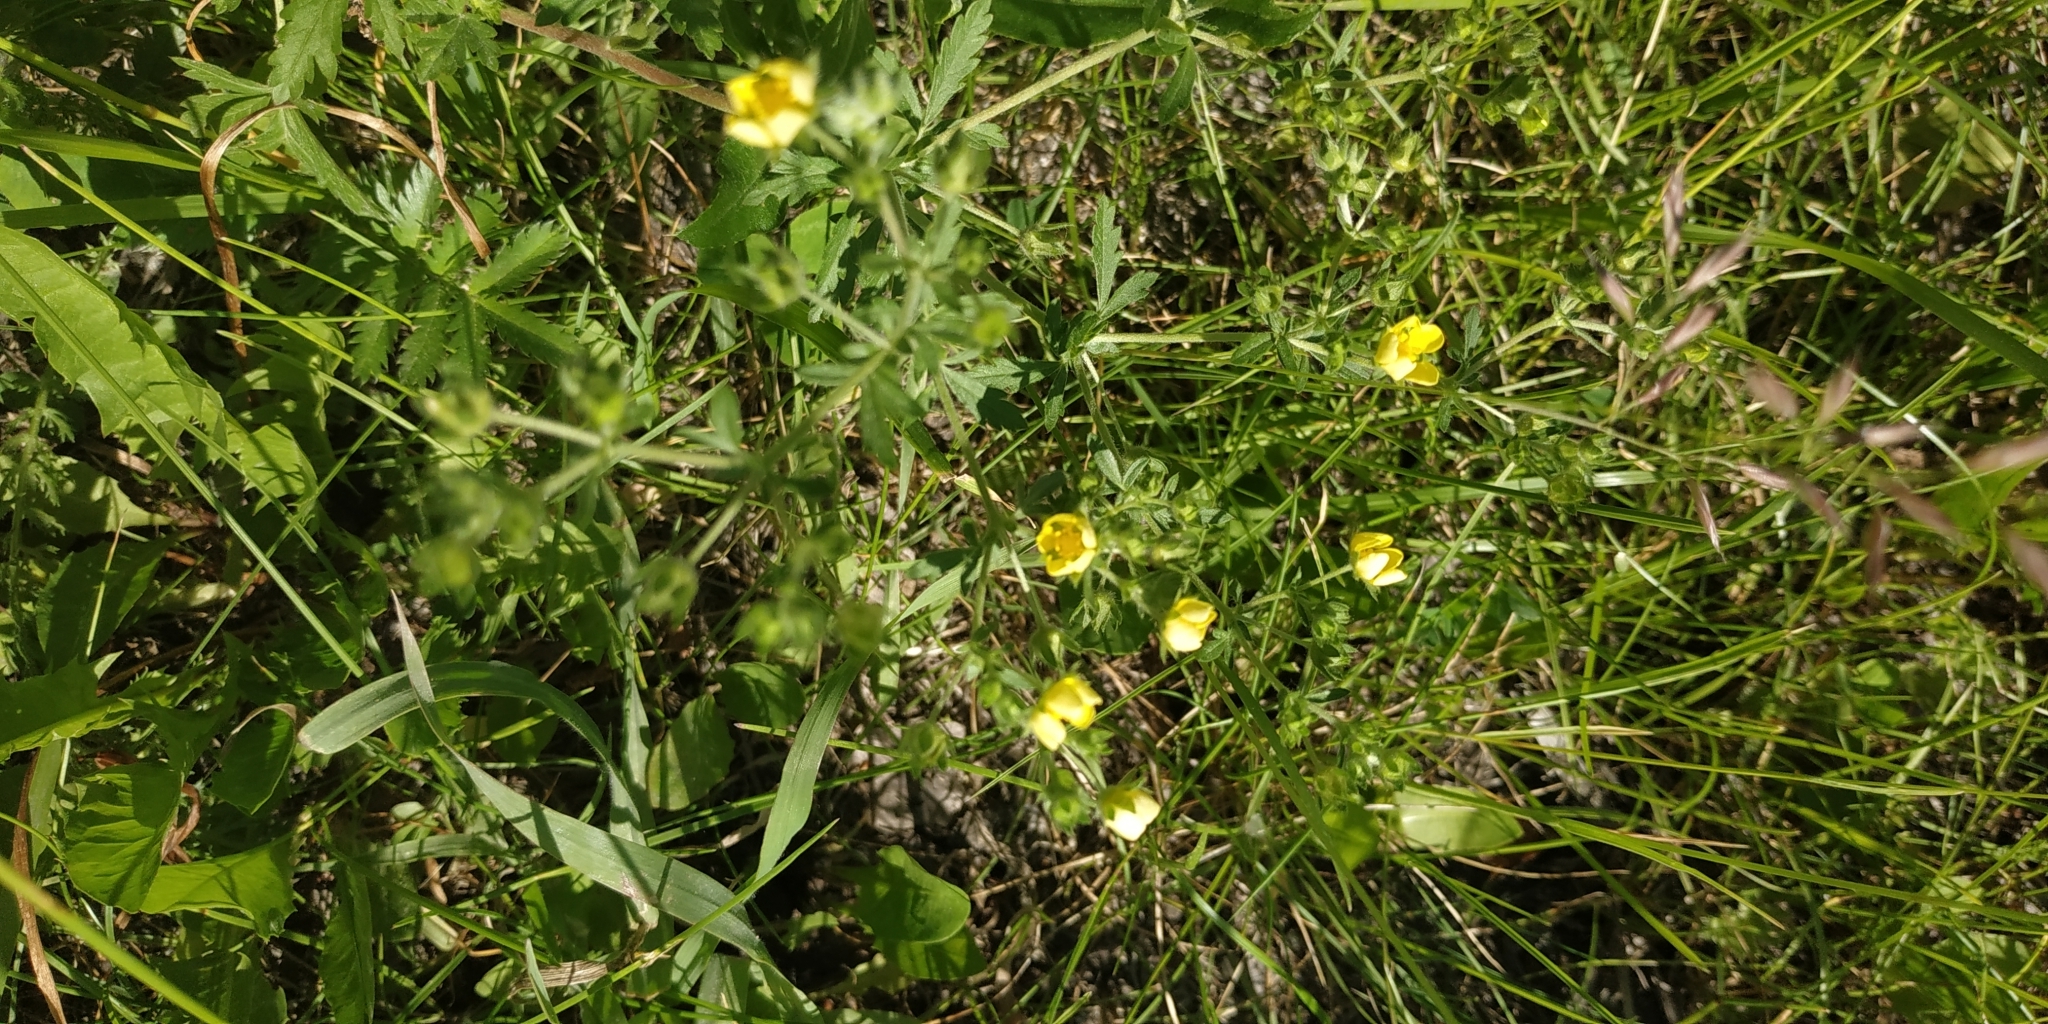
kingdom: Plantae
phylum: Tracheophyta
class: Magnoliopsida
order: Rosales
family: Rosaceae
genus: Potentilla
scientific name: Potentilla tobolensis
